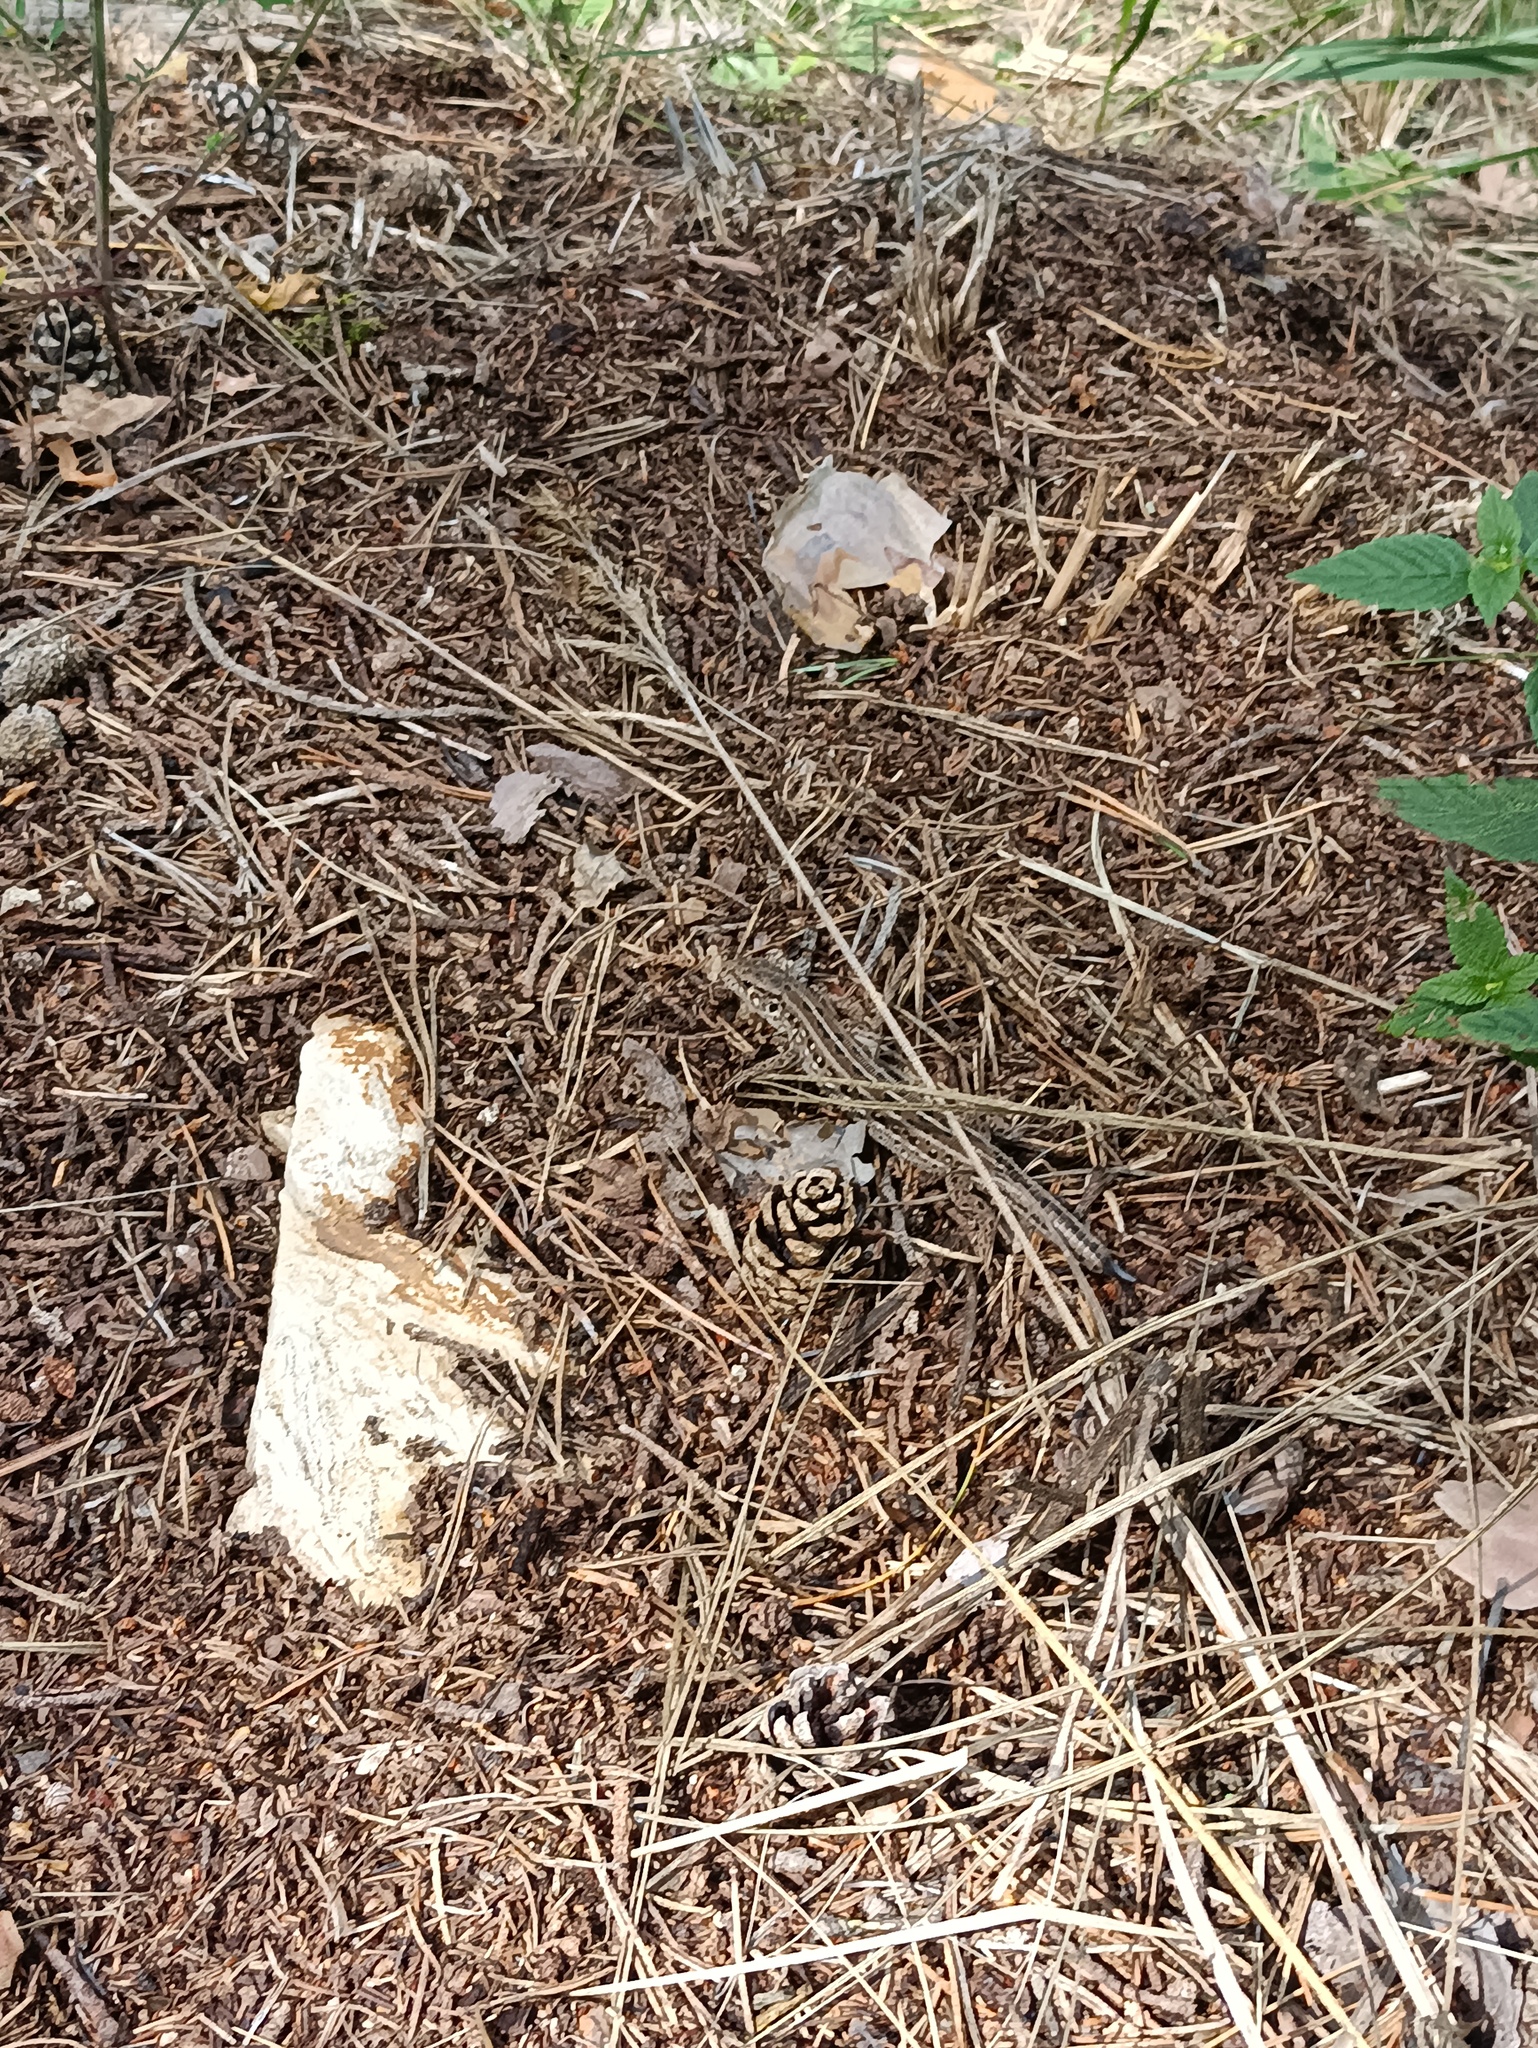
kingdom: Animalia
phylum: Chordata
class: Squamata
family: Lacertidae
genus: Lacerta
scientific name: Lacerta agilis
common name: Sand lizard
